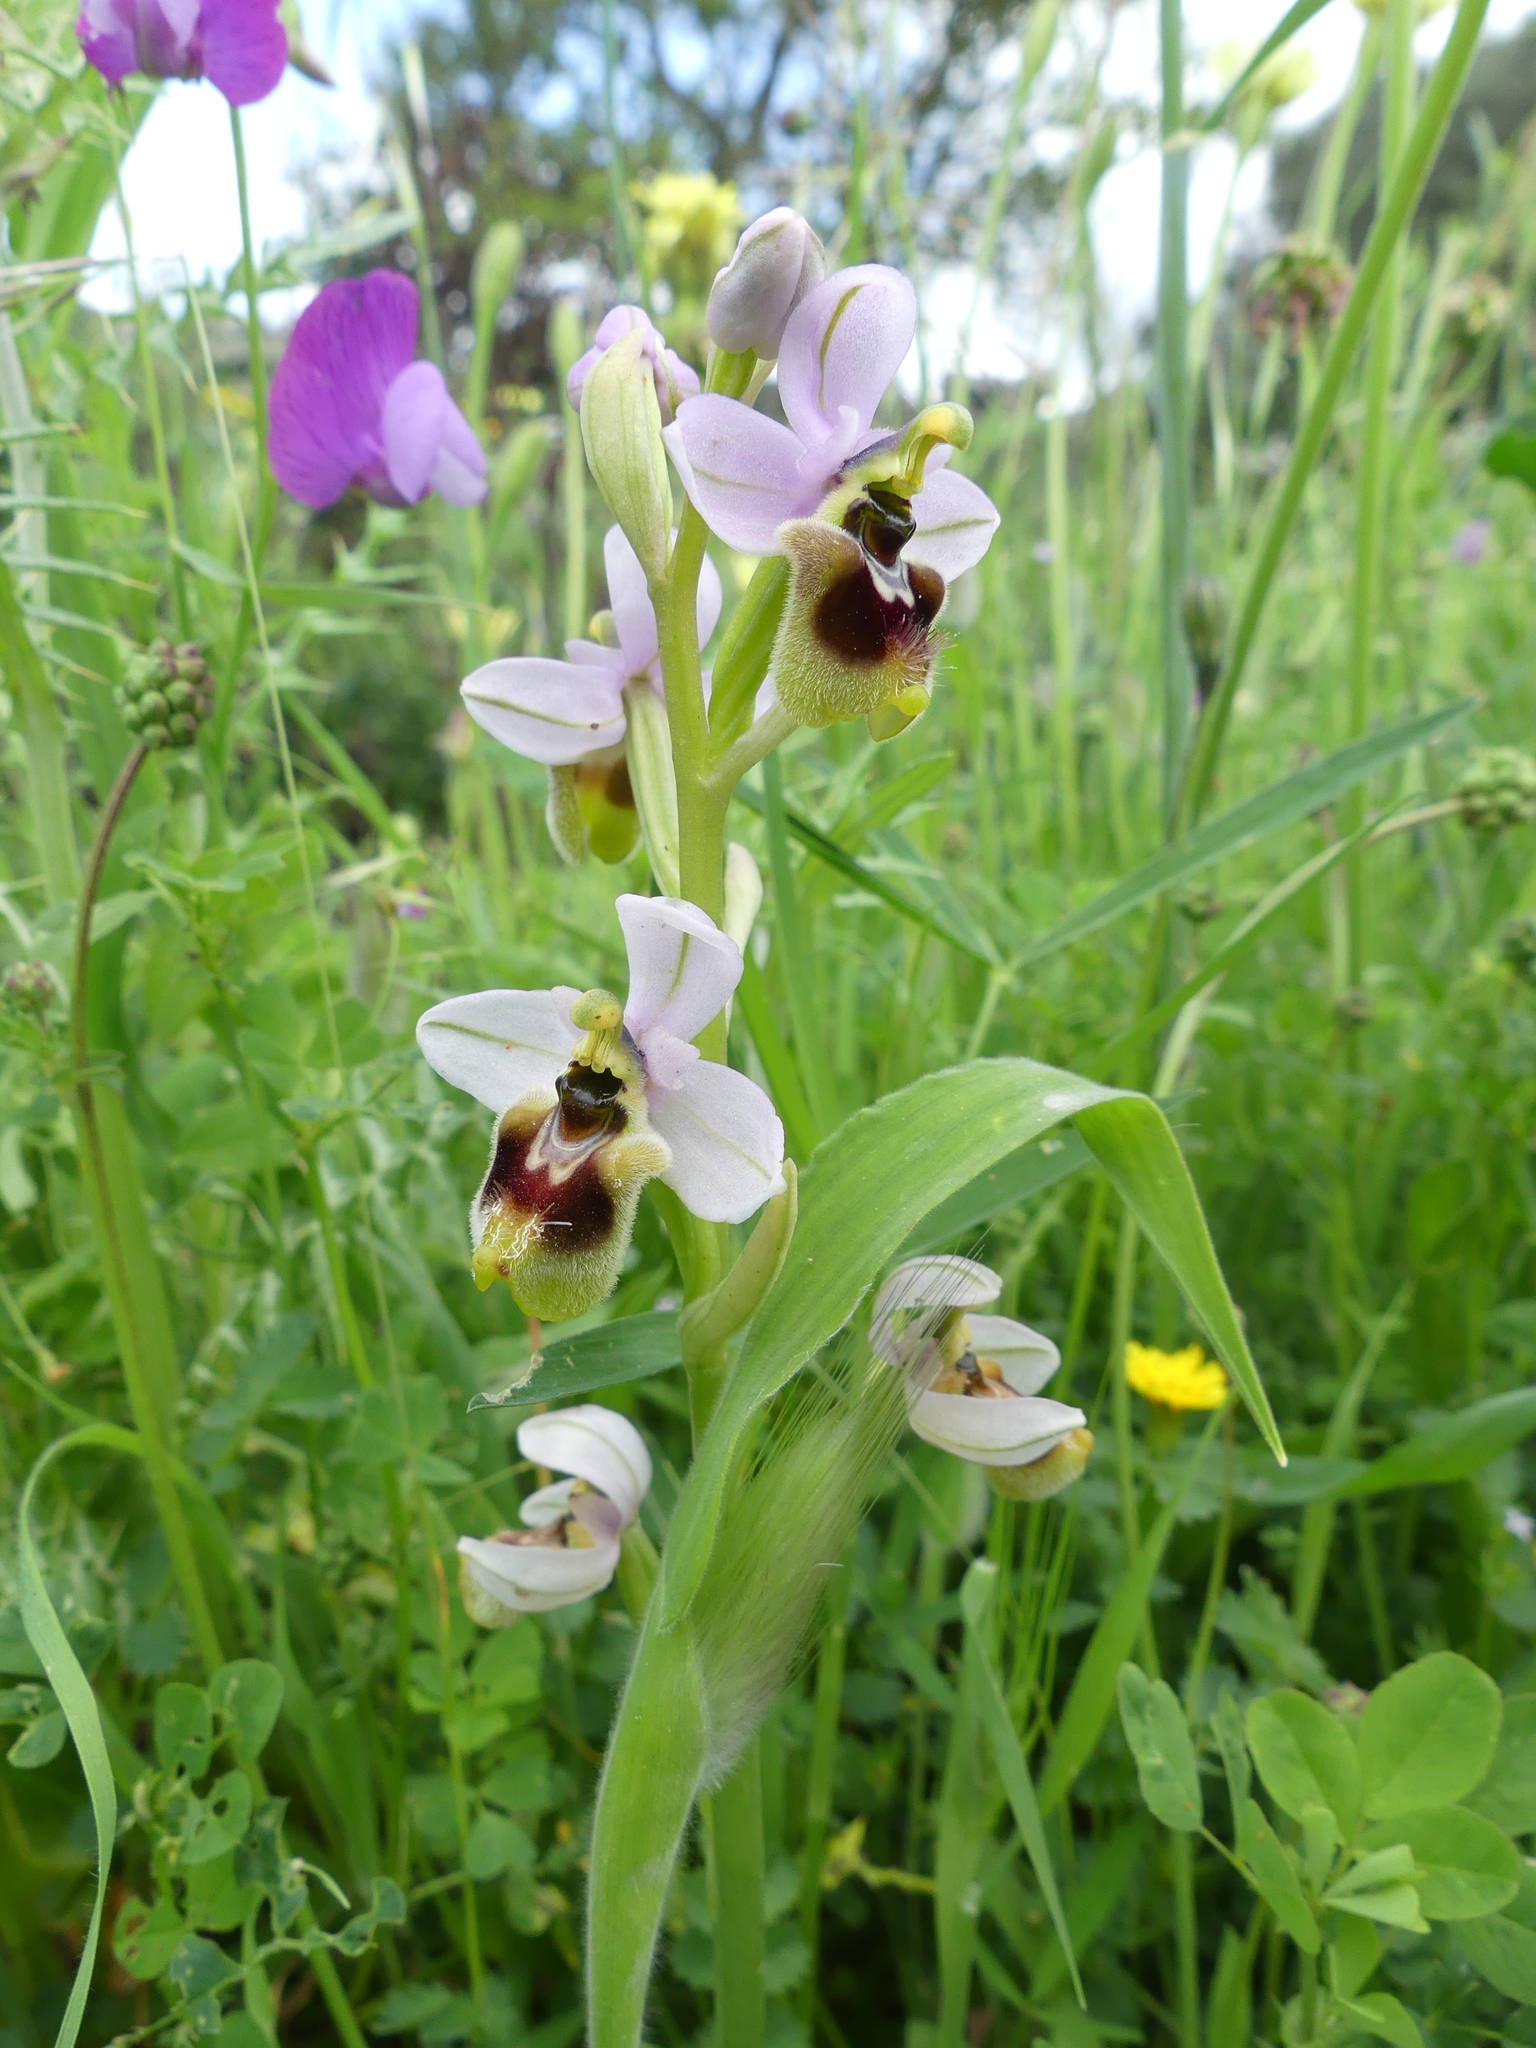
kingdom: Plantae
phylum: Tracheophyta
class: Liliopsida
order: Asparagales
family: Orchidaceae
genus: Ophrys
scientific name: Ophrys tenthredinifera
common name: Sawfly orchid
